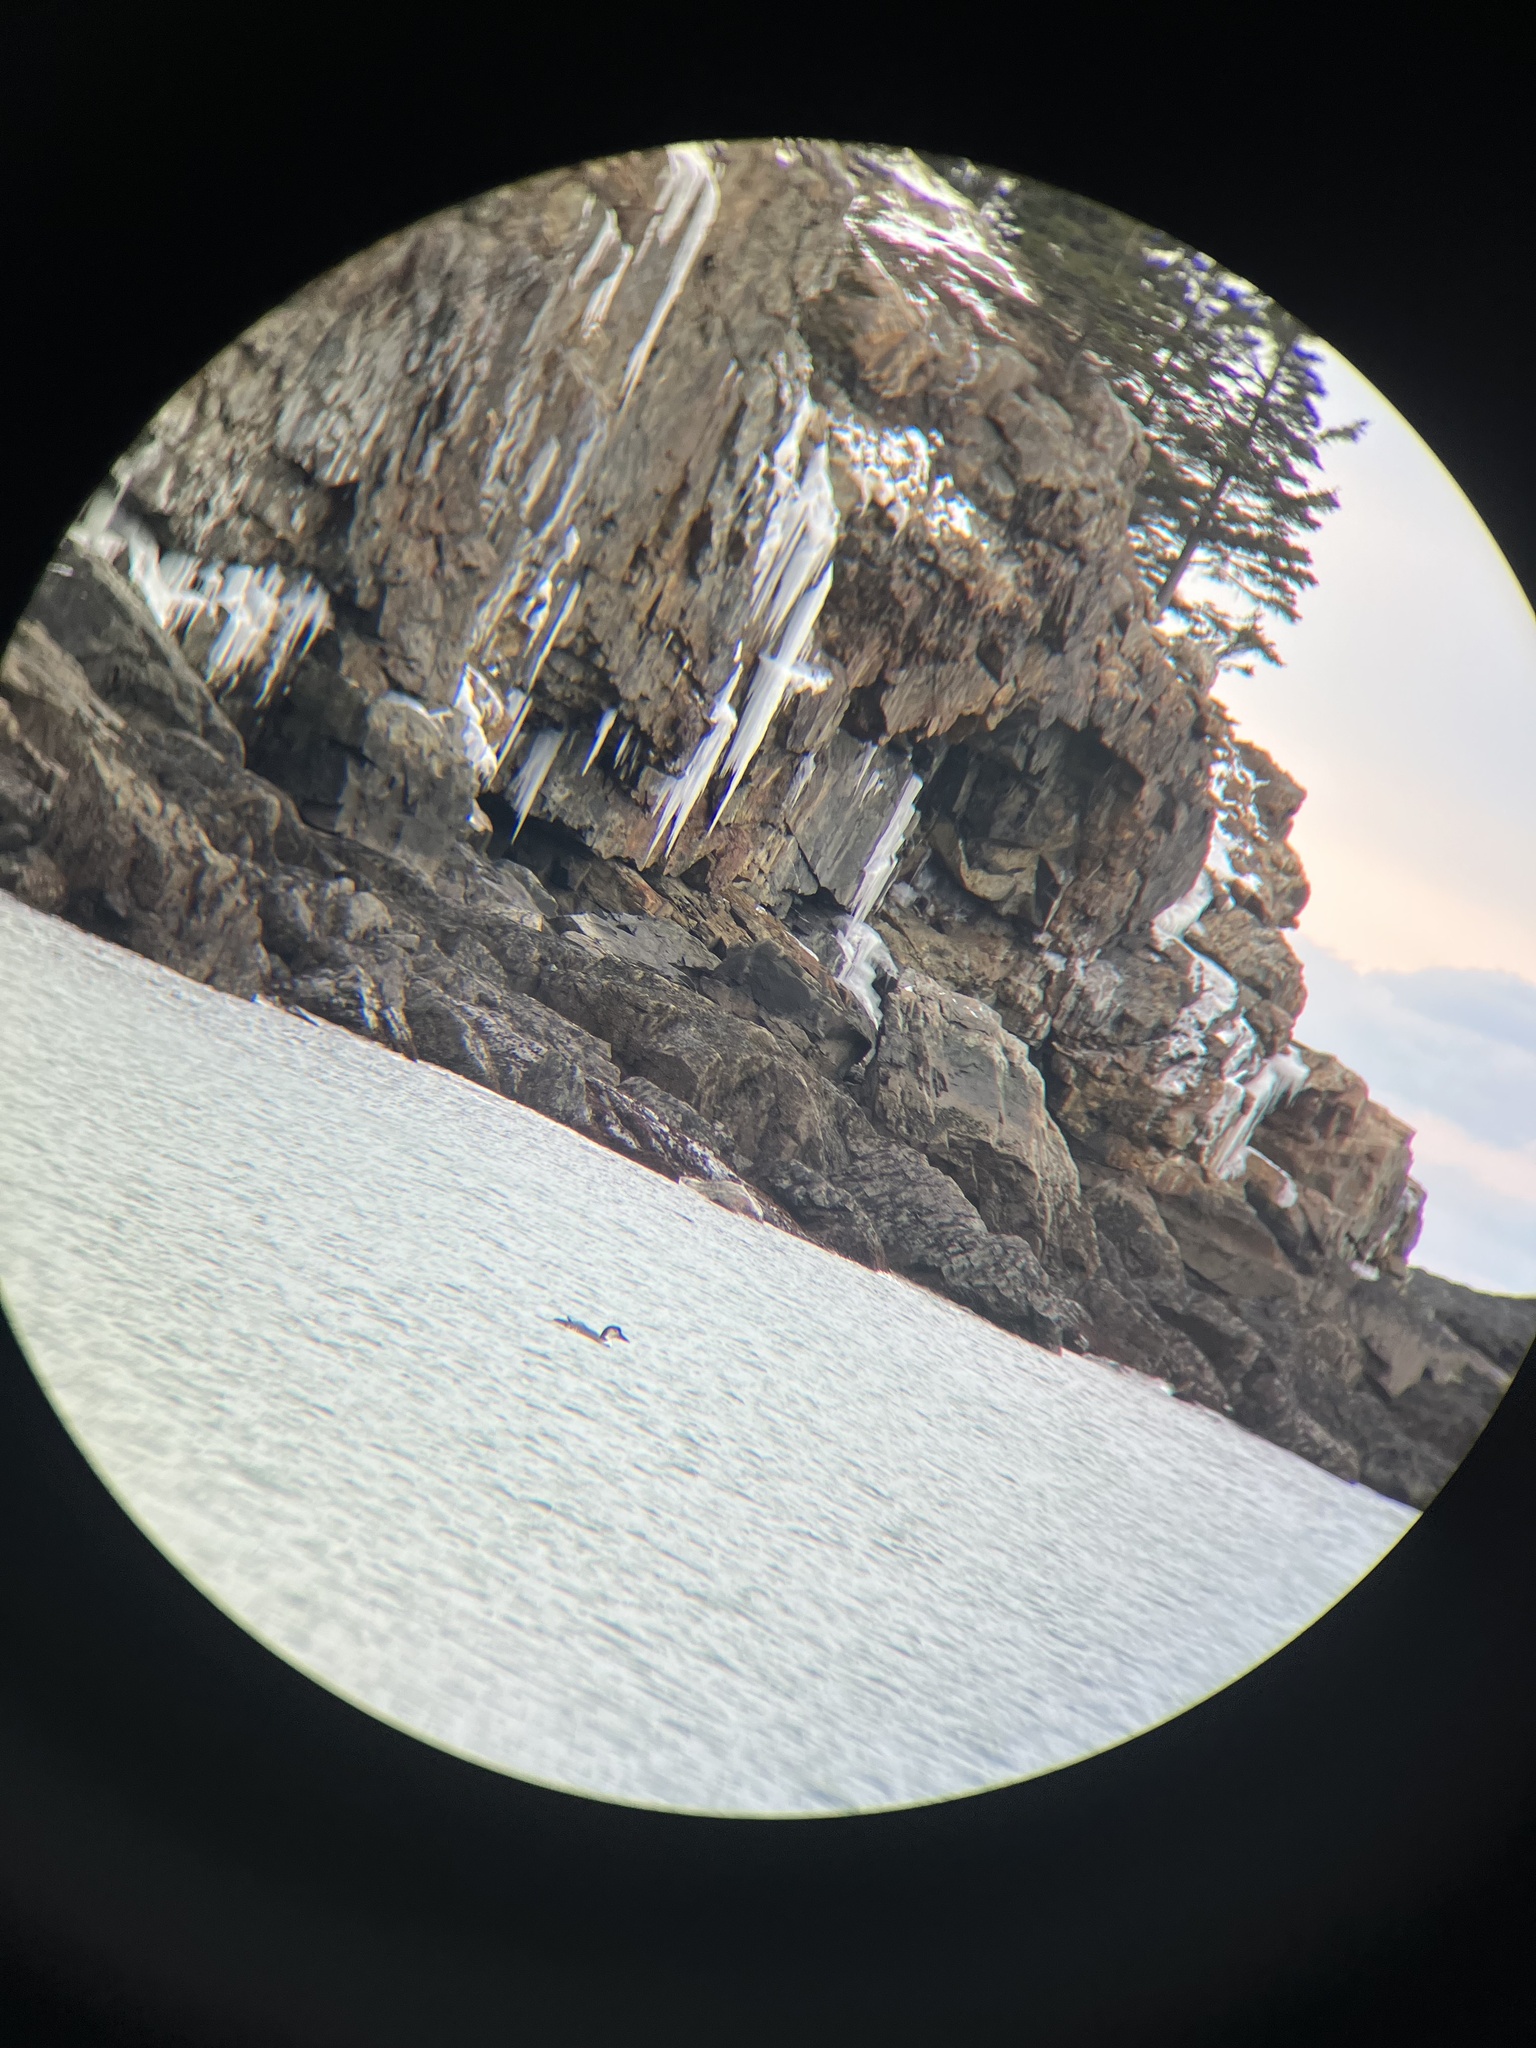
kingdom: Animalia
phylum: Chordata
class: Aves
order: Gaviiformes
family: Gaviidae
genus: Gavia
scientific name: Gavia immer
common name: Common loon
